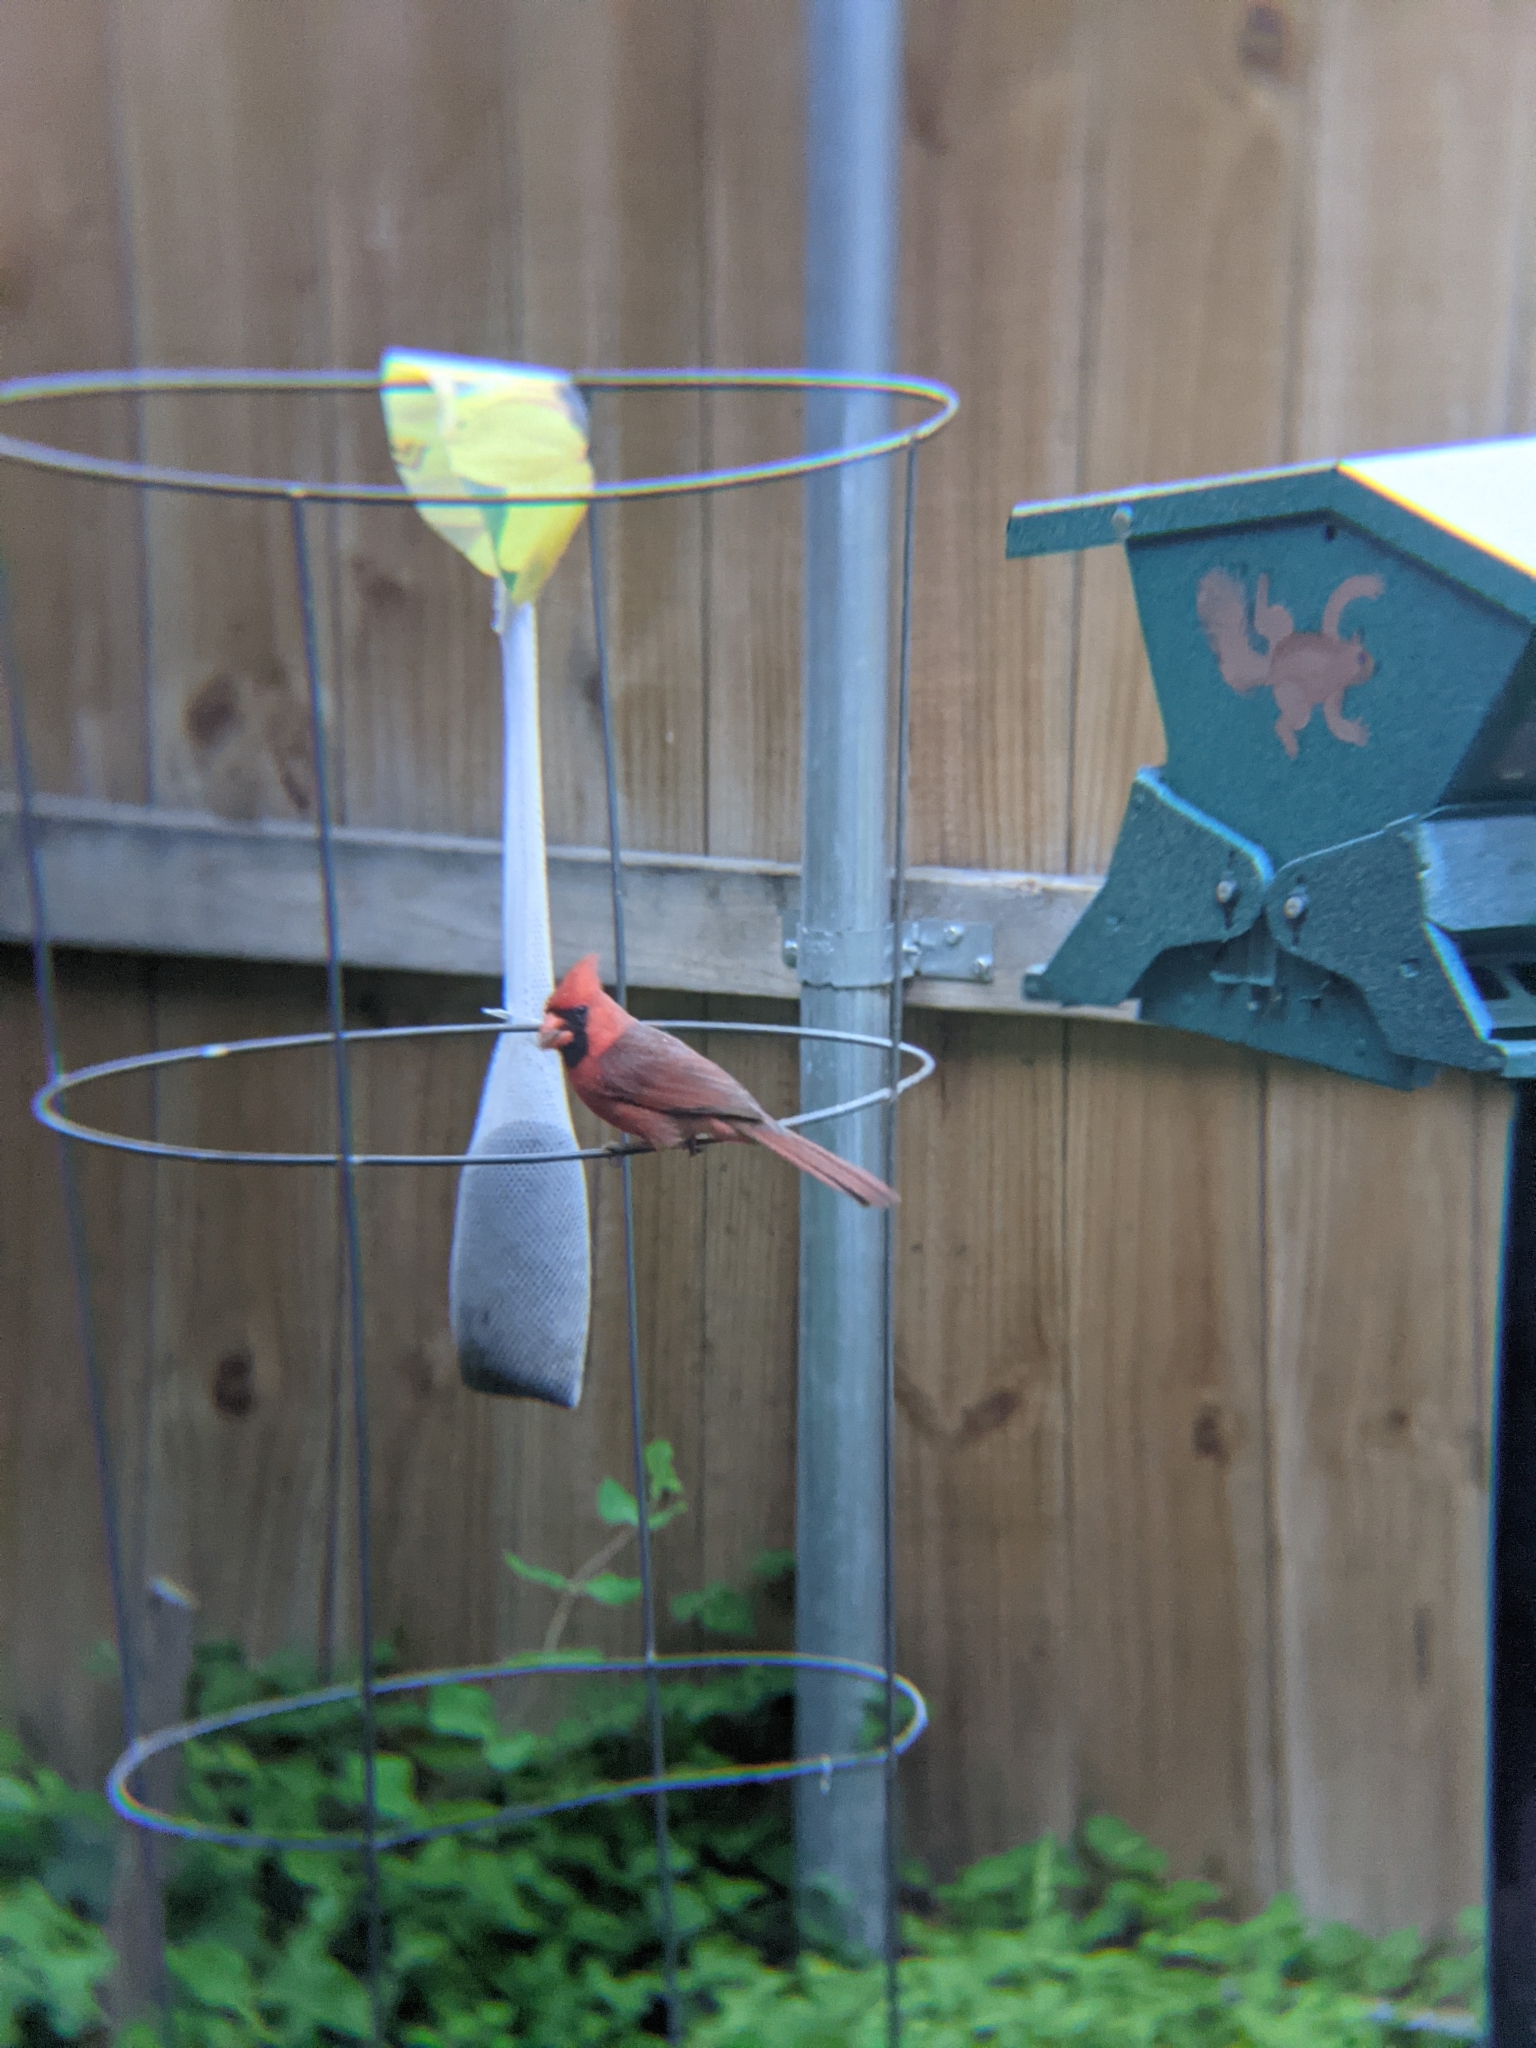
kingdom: Animalia
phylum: Chordata
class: Aves
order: Passeriformes
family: Cardinalidae
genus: Cardinalis
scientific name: Cardinalis cardinalis
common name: Northern cardinal
